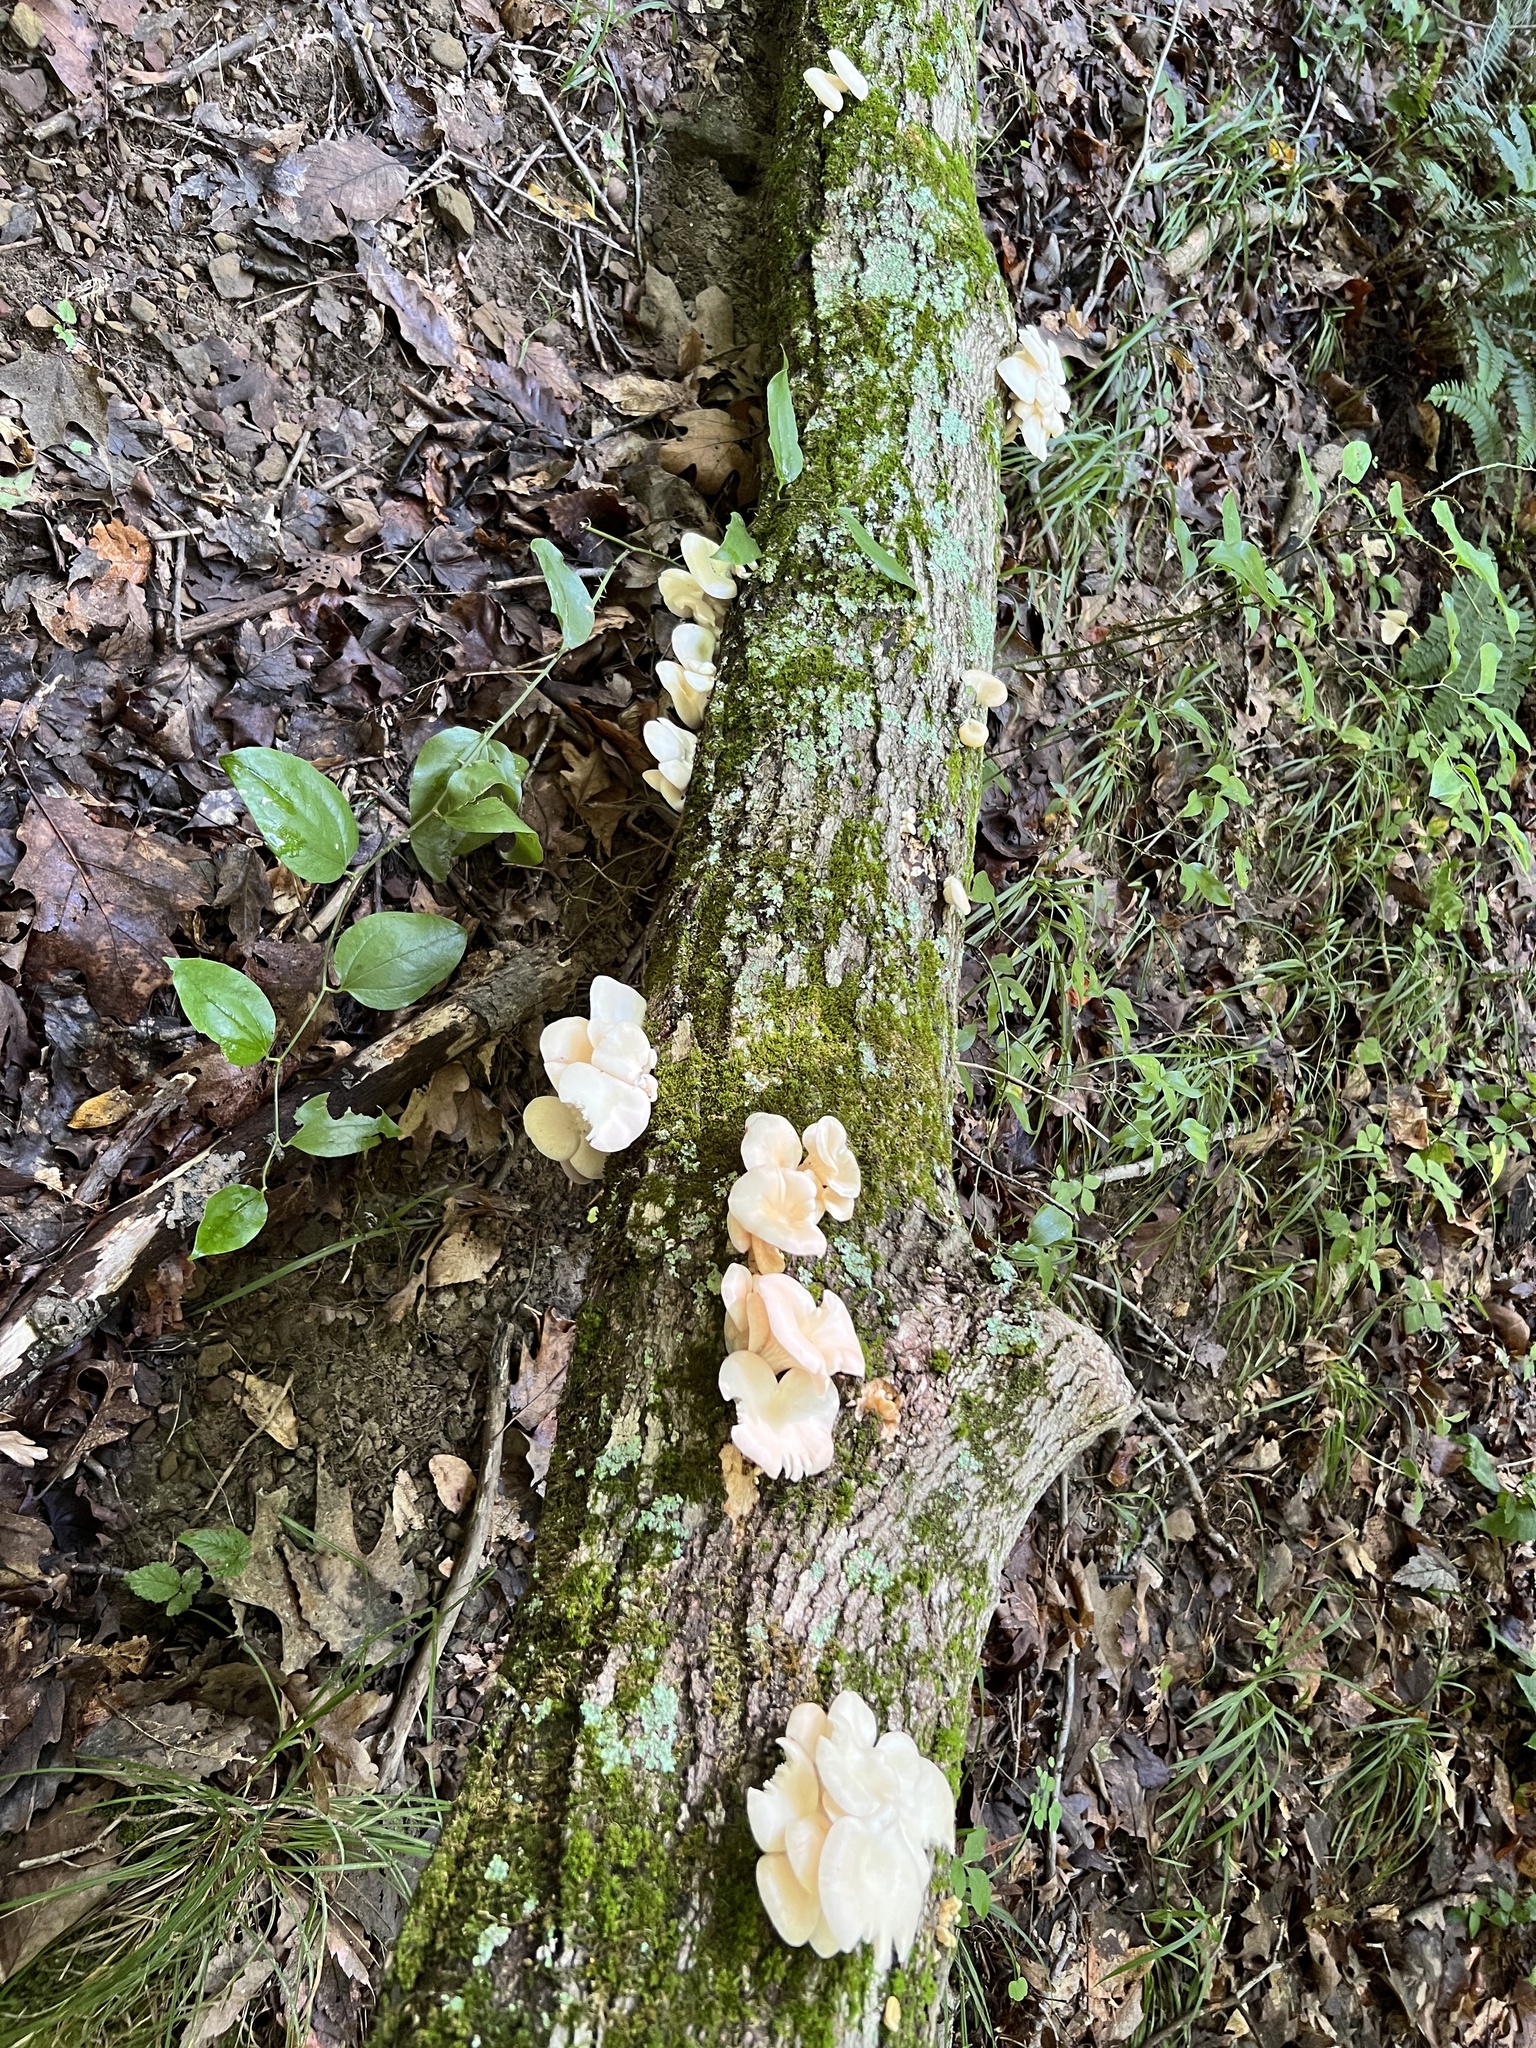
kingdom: Fungi
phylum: Basidiomycota
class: Agaricomycetes
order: Agaricales
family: Pleurotaceae
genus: Pleurotus
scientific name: Pleurotus pulmonarius
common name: Pale oyster
